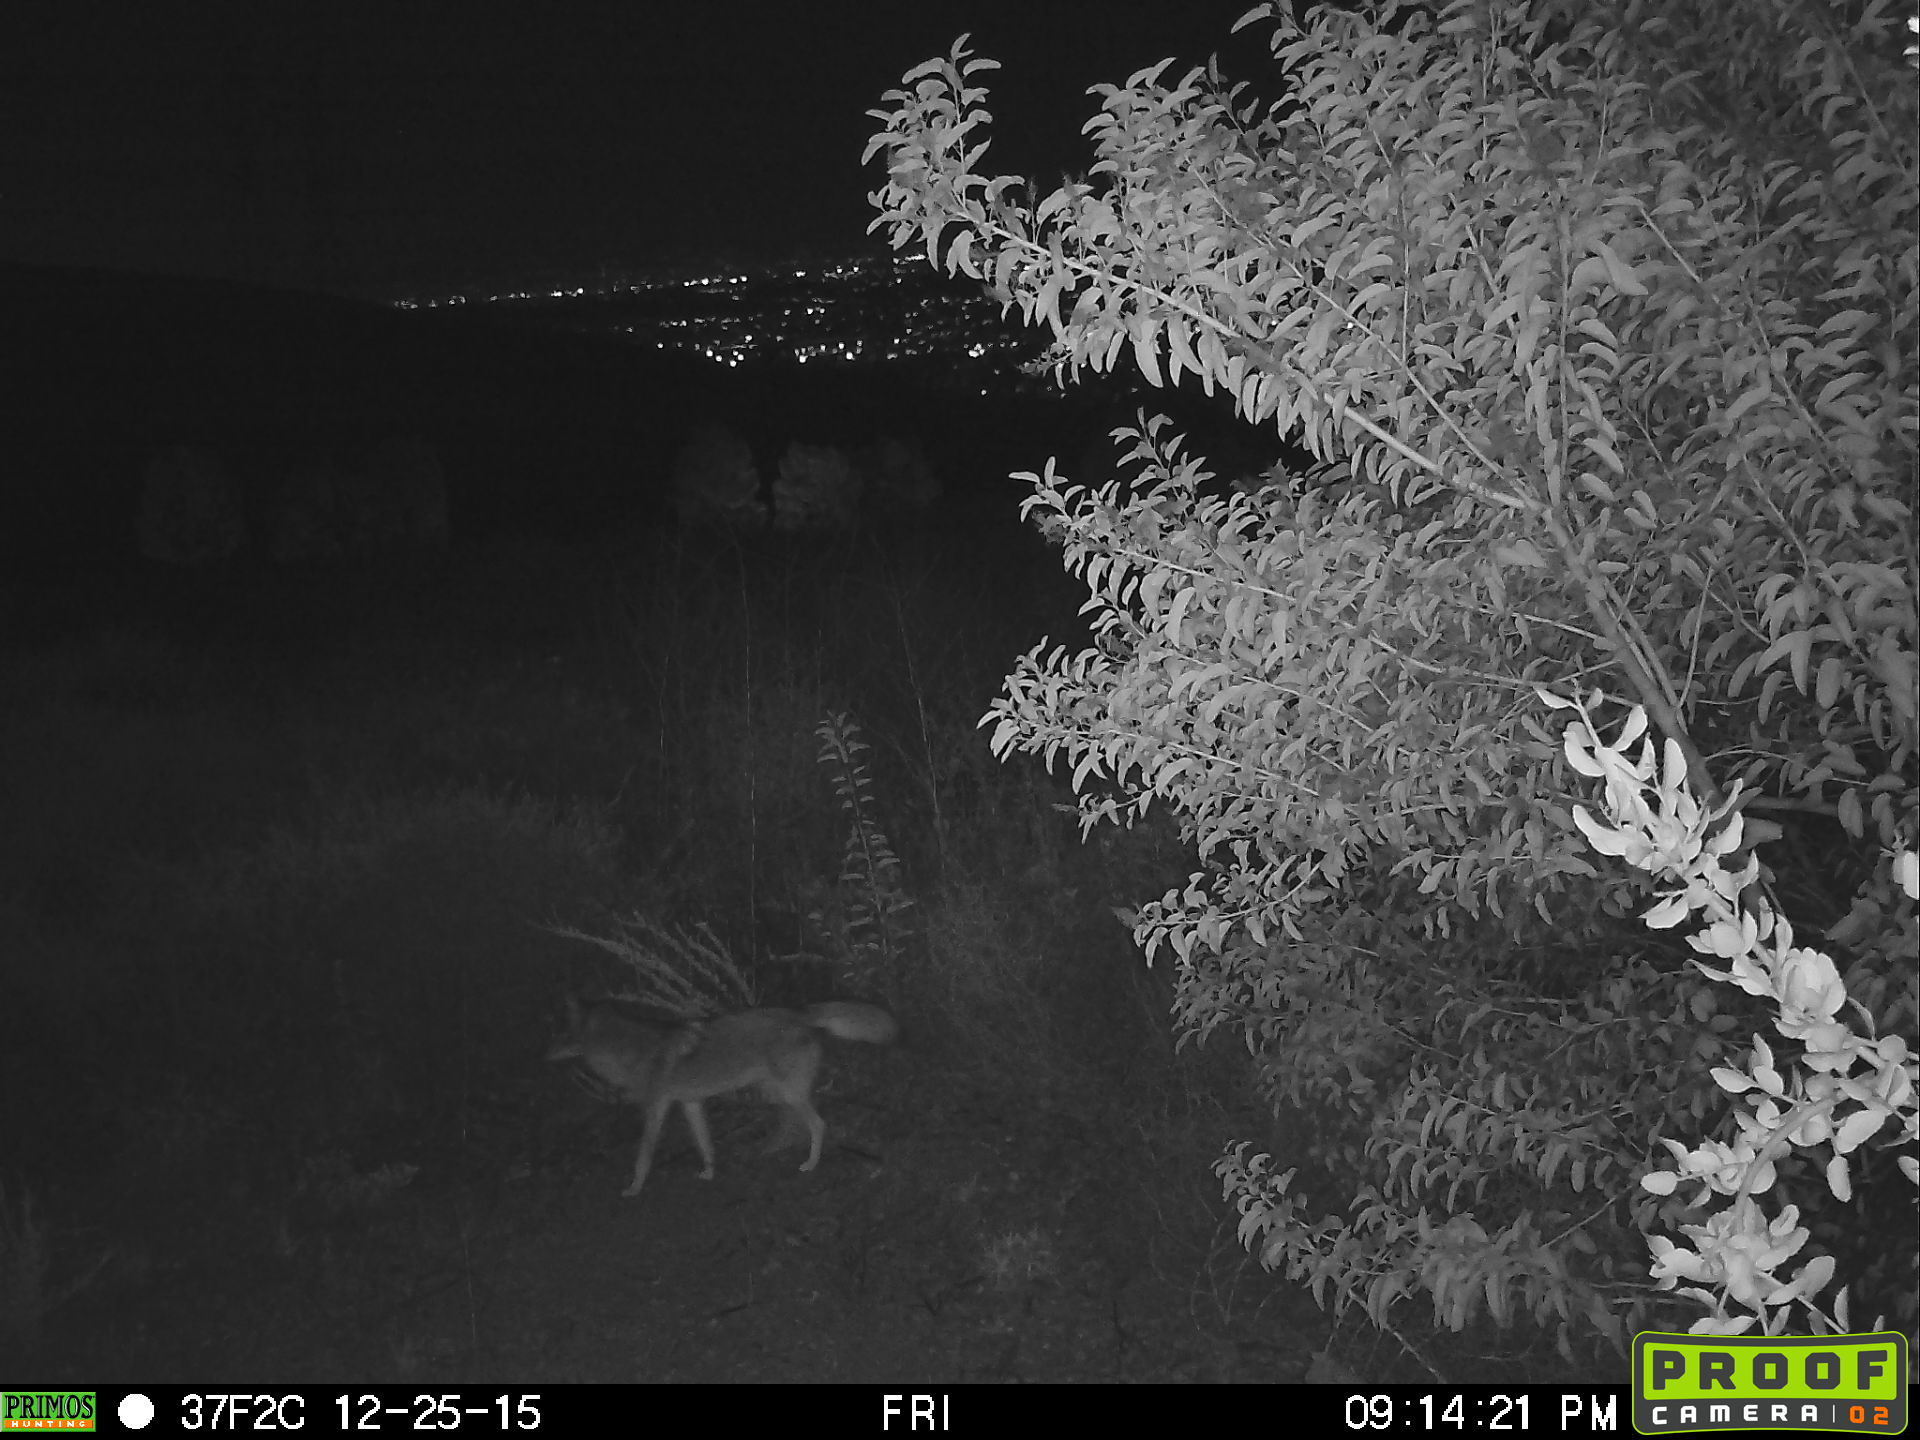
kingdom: Animalia
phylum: Chordata
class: Mammalia
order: Carnivora
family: Canidae
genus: Canis
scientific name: Canis latrans
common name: Coyote
